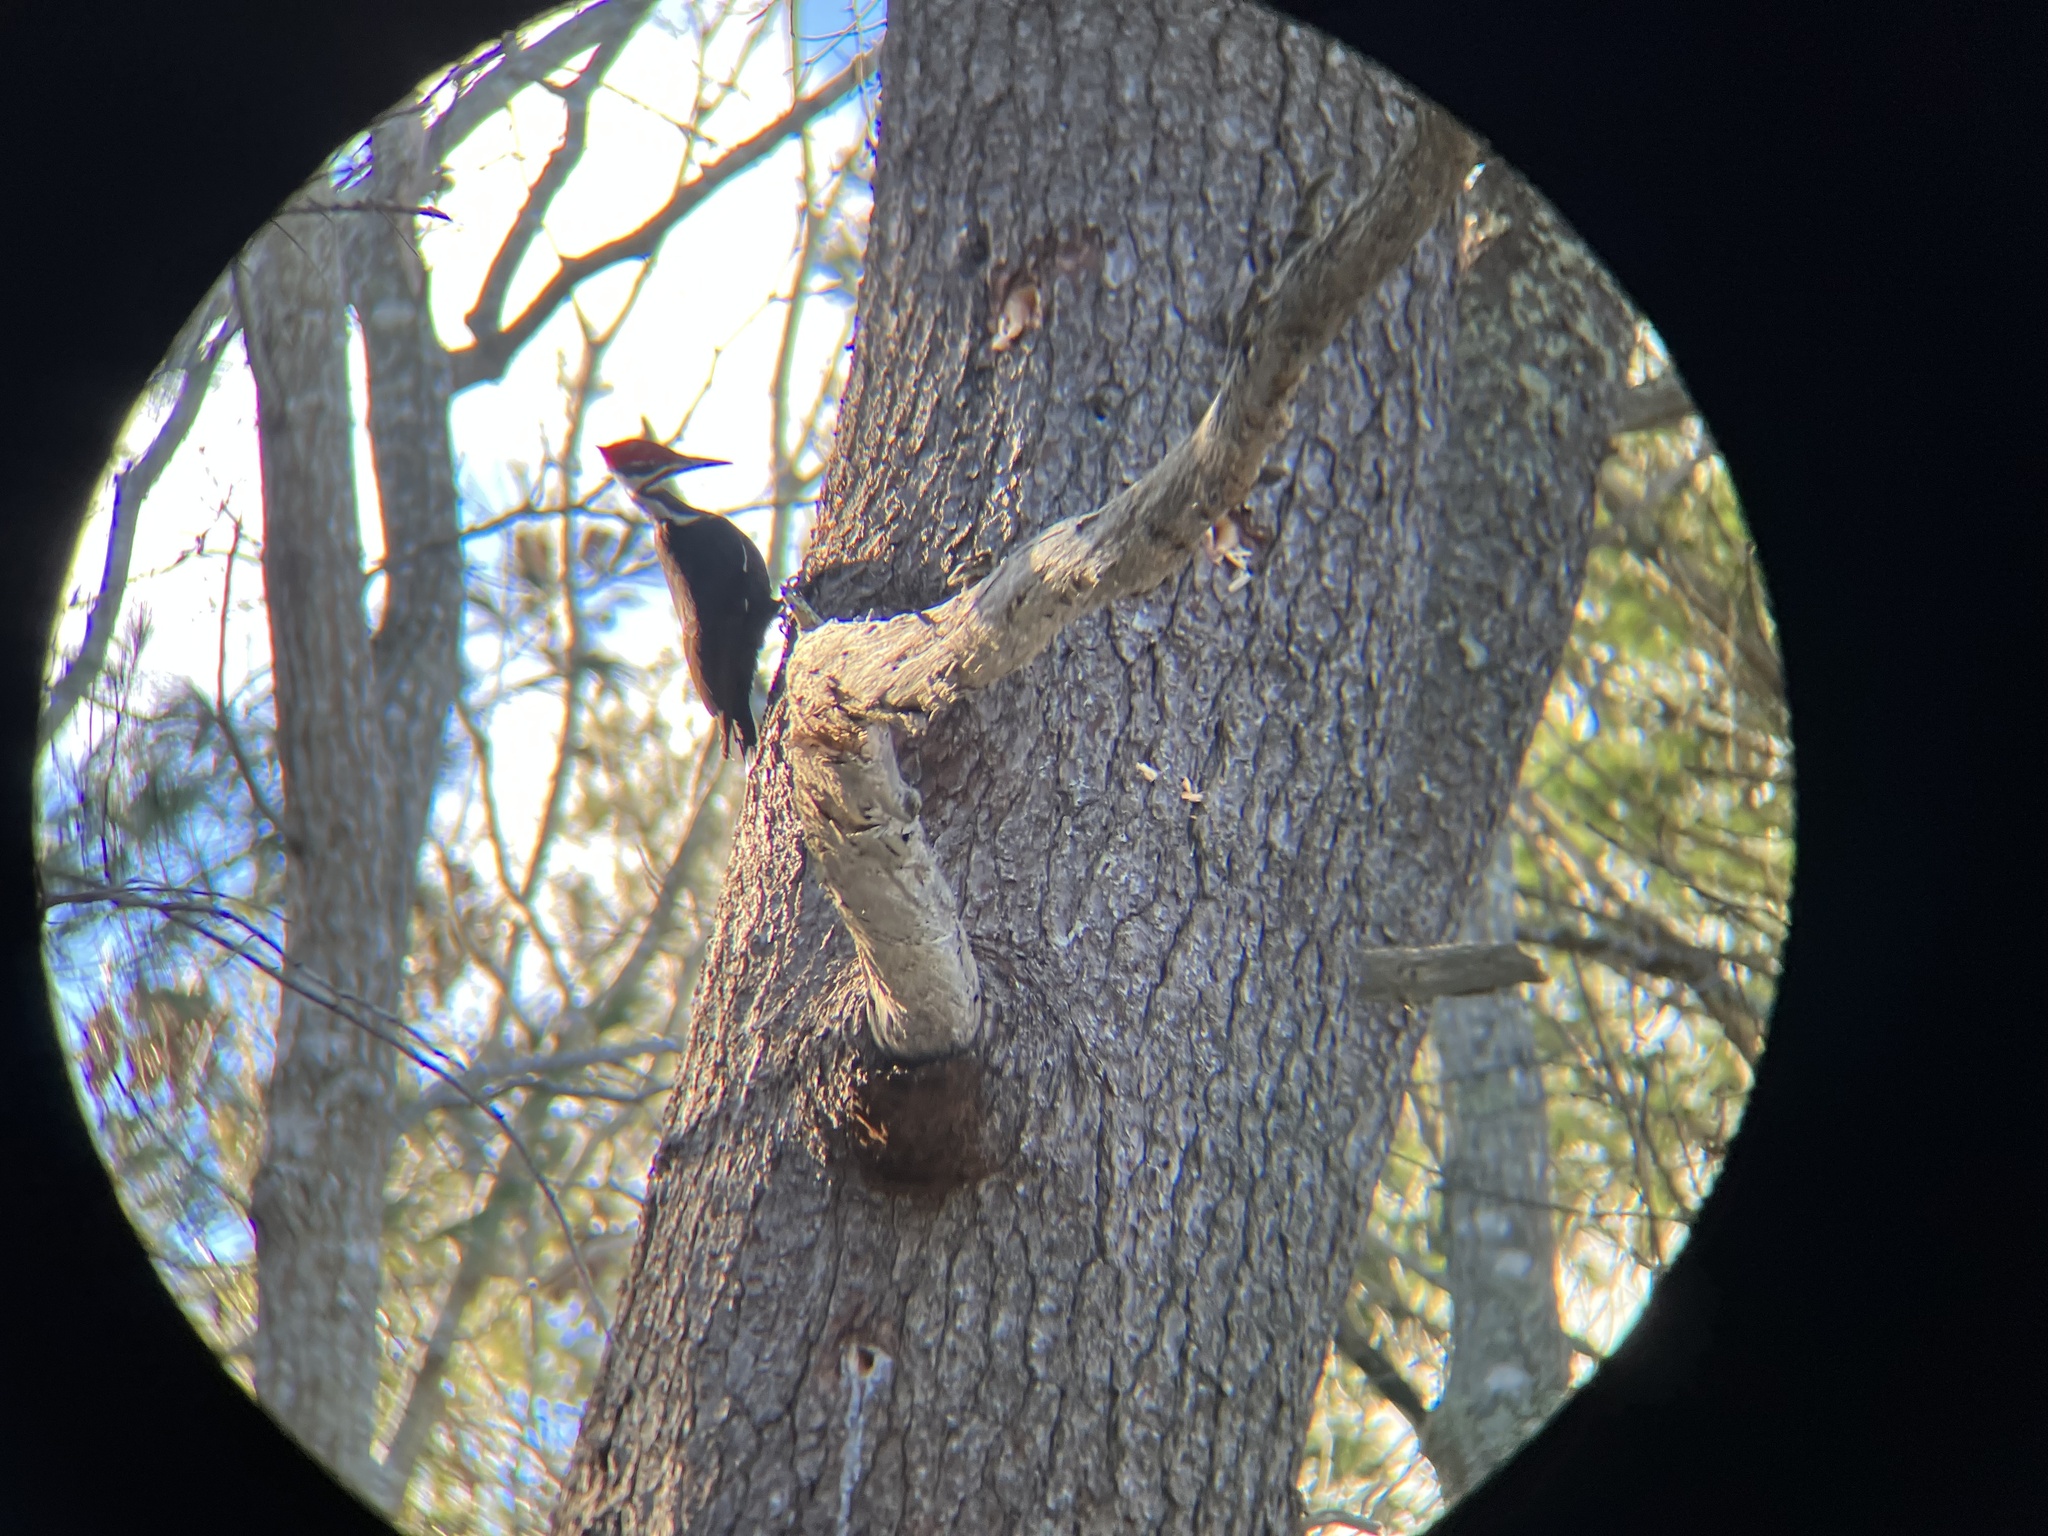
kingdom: Animalia
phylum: Chordata
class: Aves
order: Piciformes
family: Picidae
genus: Dryocopus
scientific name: Dryocopus pileatus
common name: Pileated woodpecker
